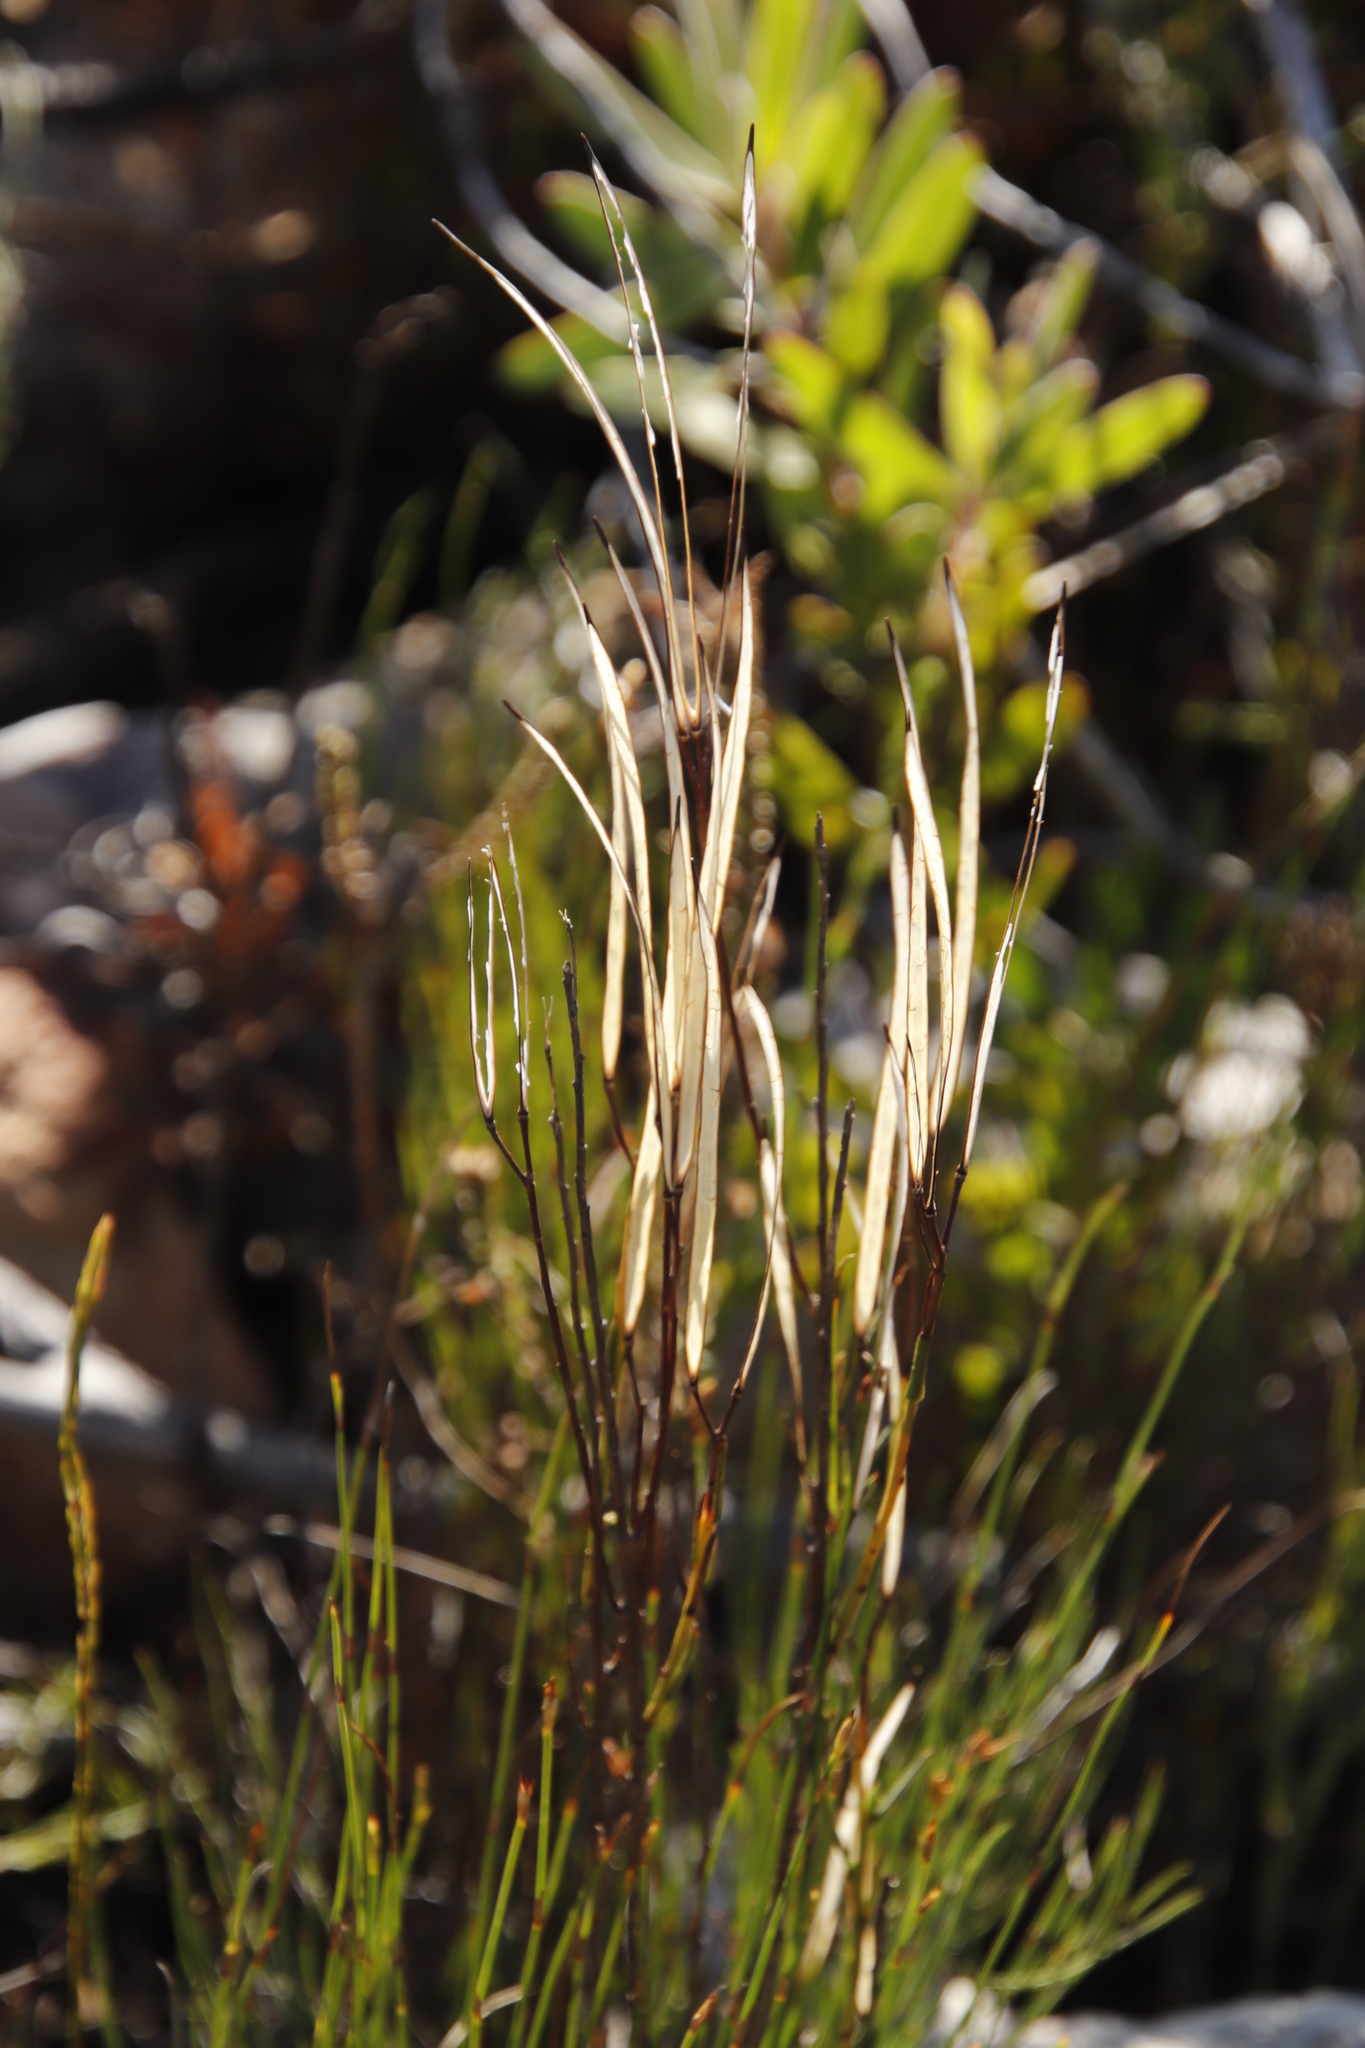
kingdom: Plantae
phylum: Tracheophyta
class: Magnoliopsida
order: Brassicales
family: Brassicaceae
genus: Heliophila
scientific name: Heliophila scoparia
